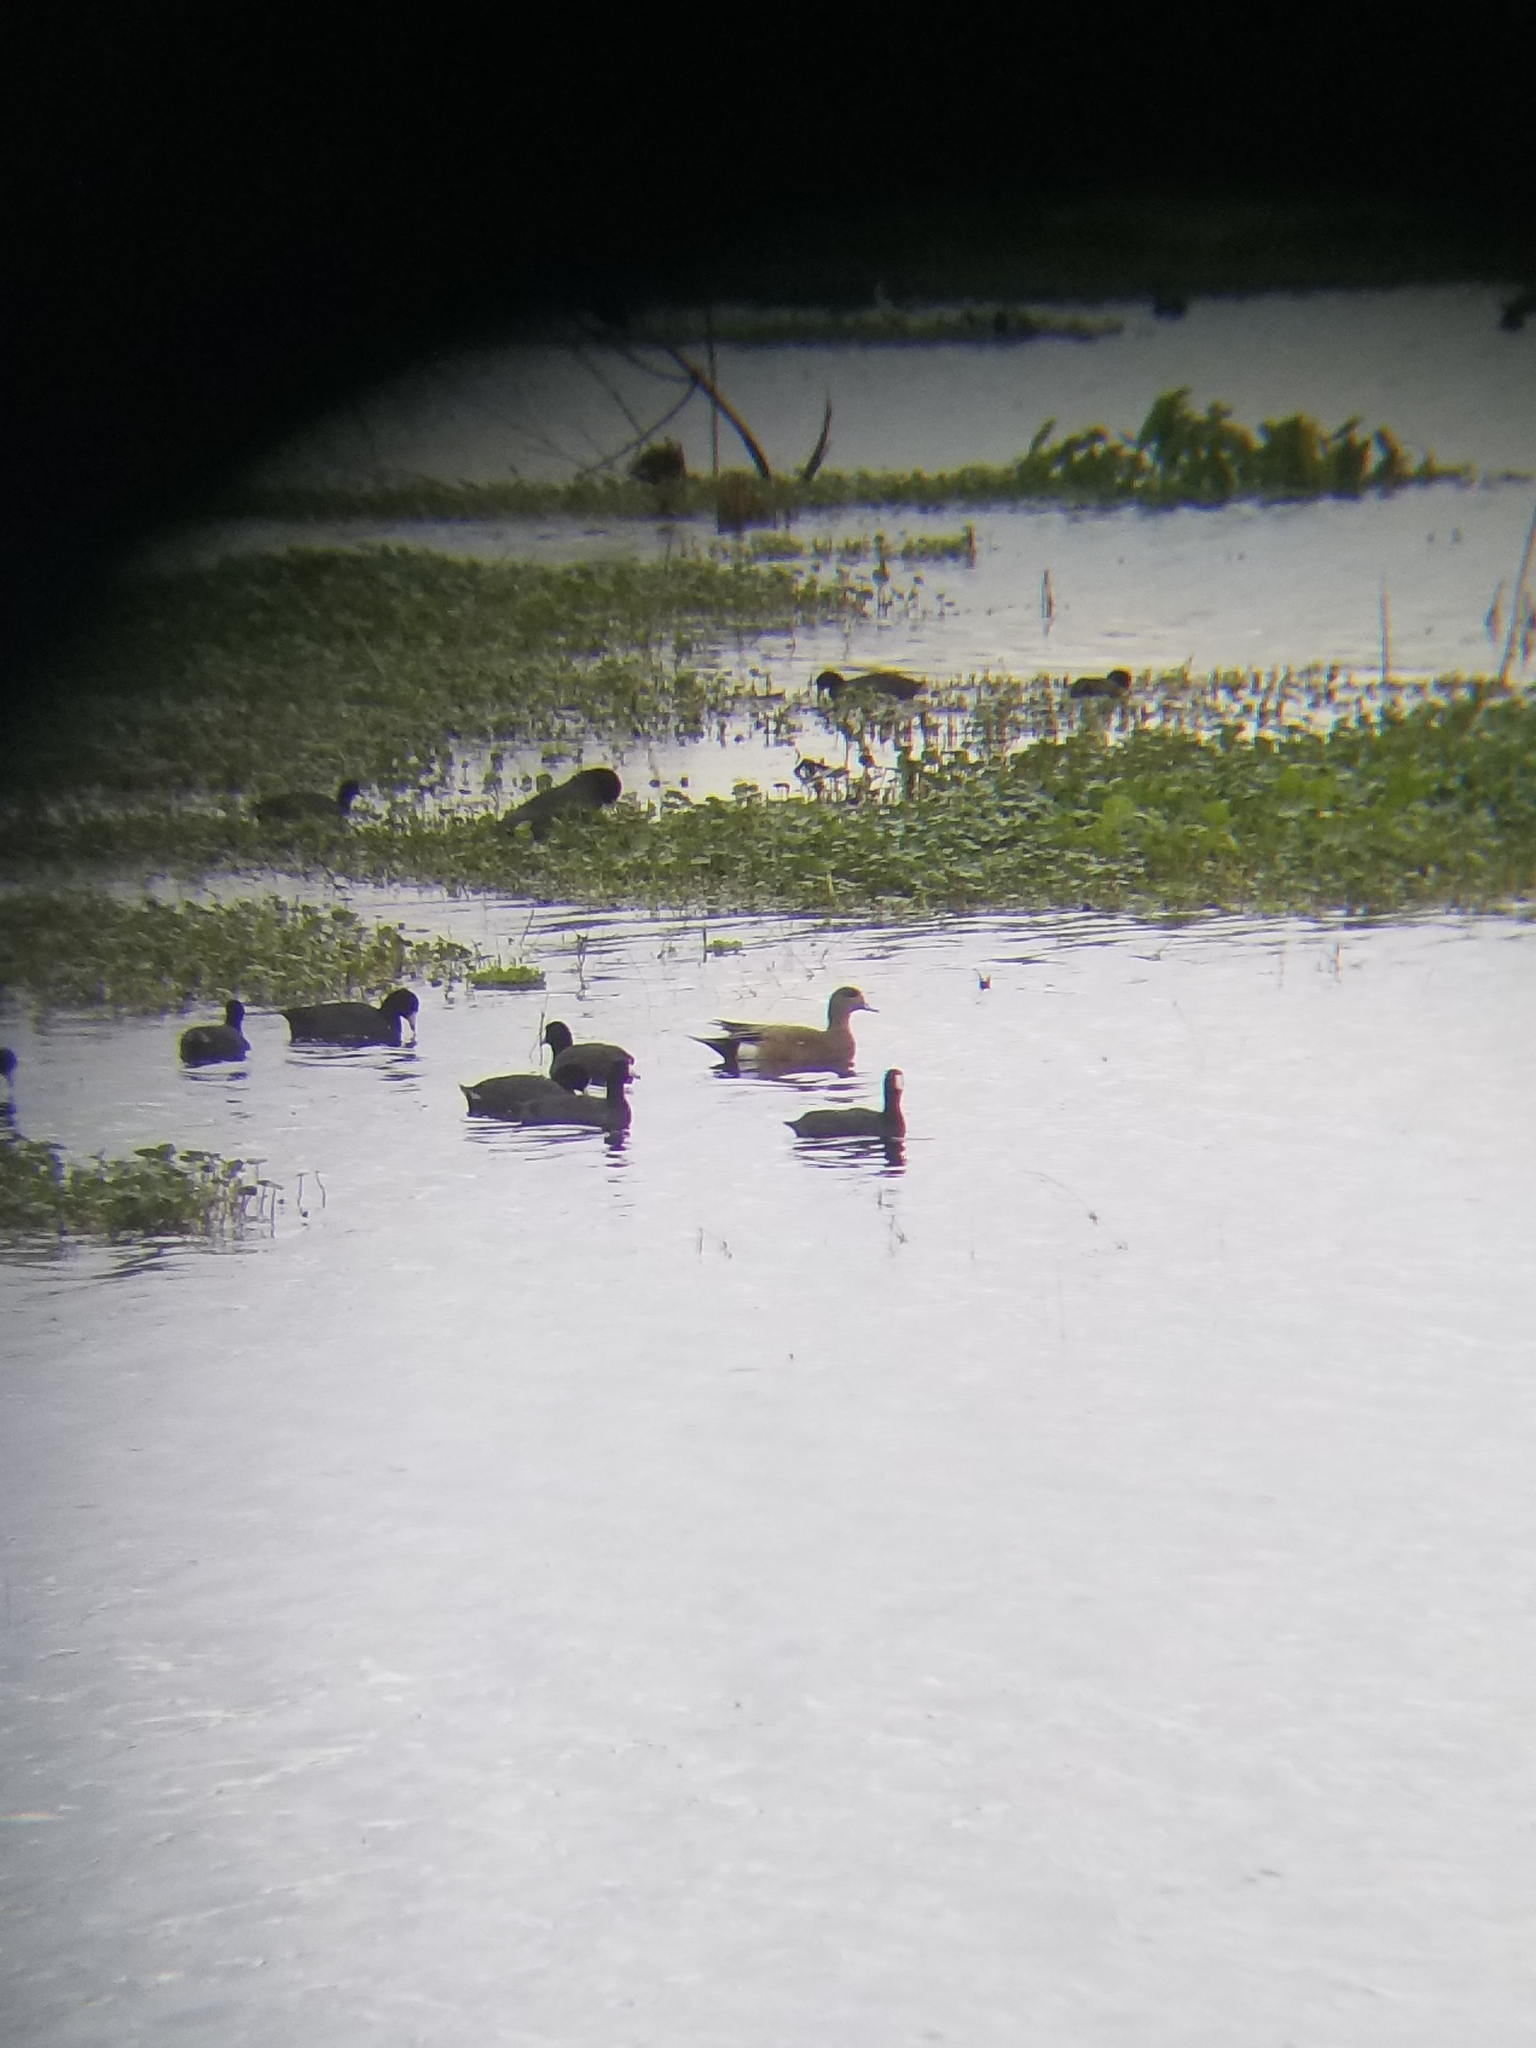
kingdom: Animalia
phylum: Chordata
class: Aves
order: Anseriformes
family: Anatidae
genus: Mareca
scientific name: Mareca americana
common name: American wigeon
